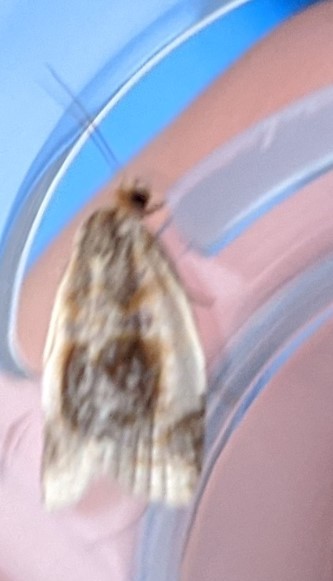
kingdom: Animalia
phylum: Arthropoda
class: Insecta
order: Lepidoptera
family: Tortricidae
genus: Clepsis
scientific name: Clepsis melaleucanus
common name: American apple tortrix
